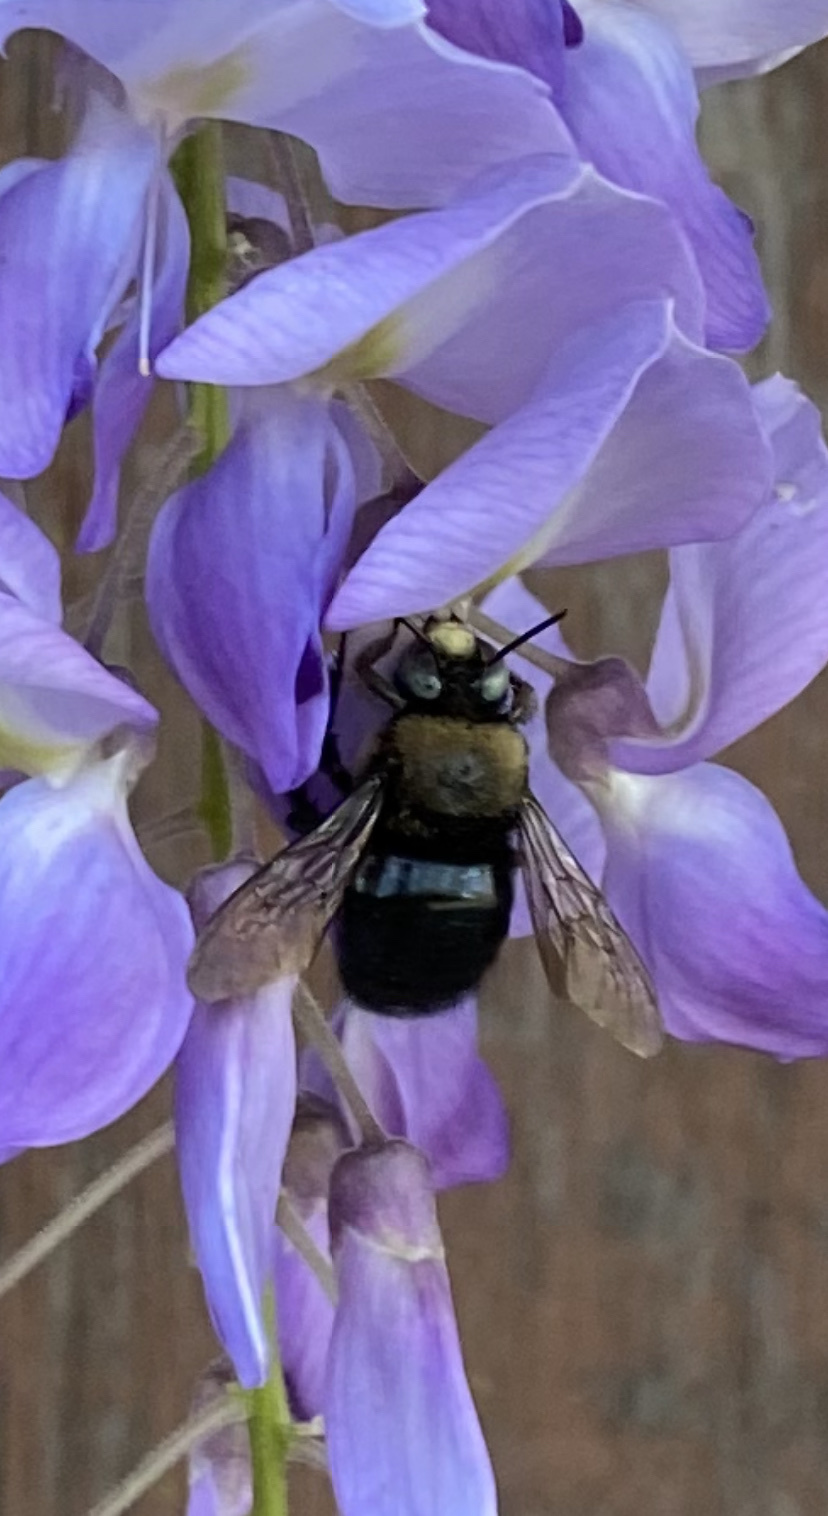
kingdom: Animalia
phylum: Arthropoda
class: Insecta
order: Hymenoptera
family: Apidae
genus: Xylocopa
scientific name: Xylocopa tabaniformis
